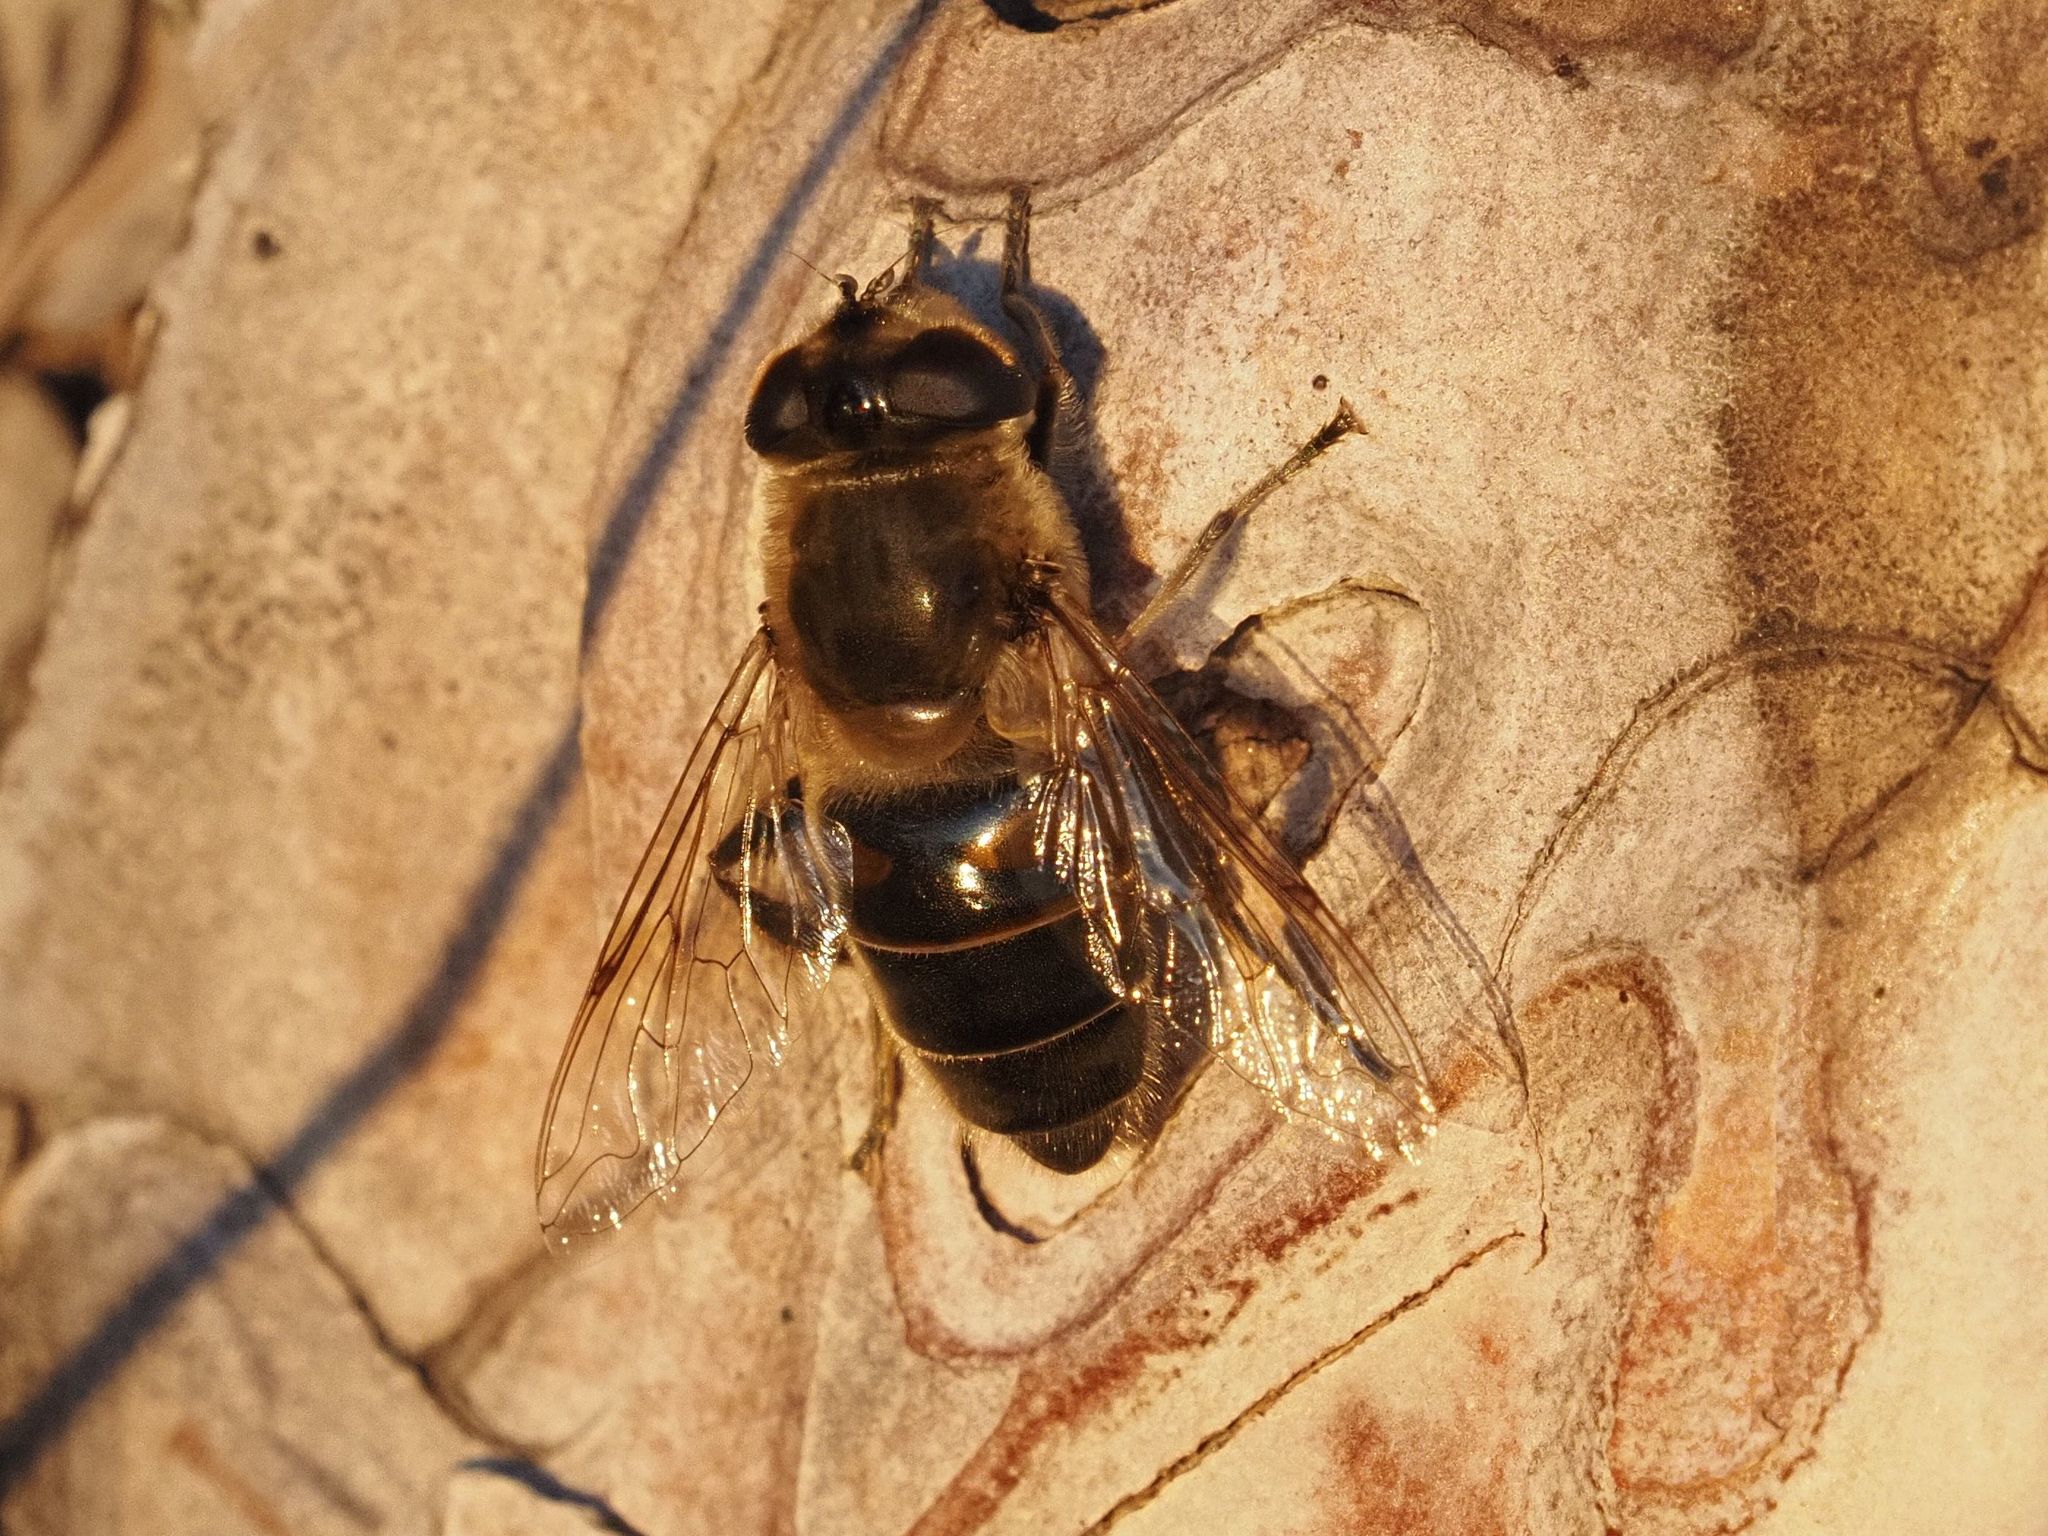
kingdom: Animalia
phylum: Arthropoda
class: Insecta
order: Diptera
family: Syrphidae
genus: Eristalis
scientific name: Eristalis tenax
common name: Drone fly
